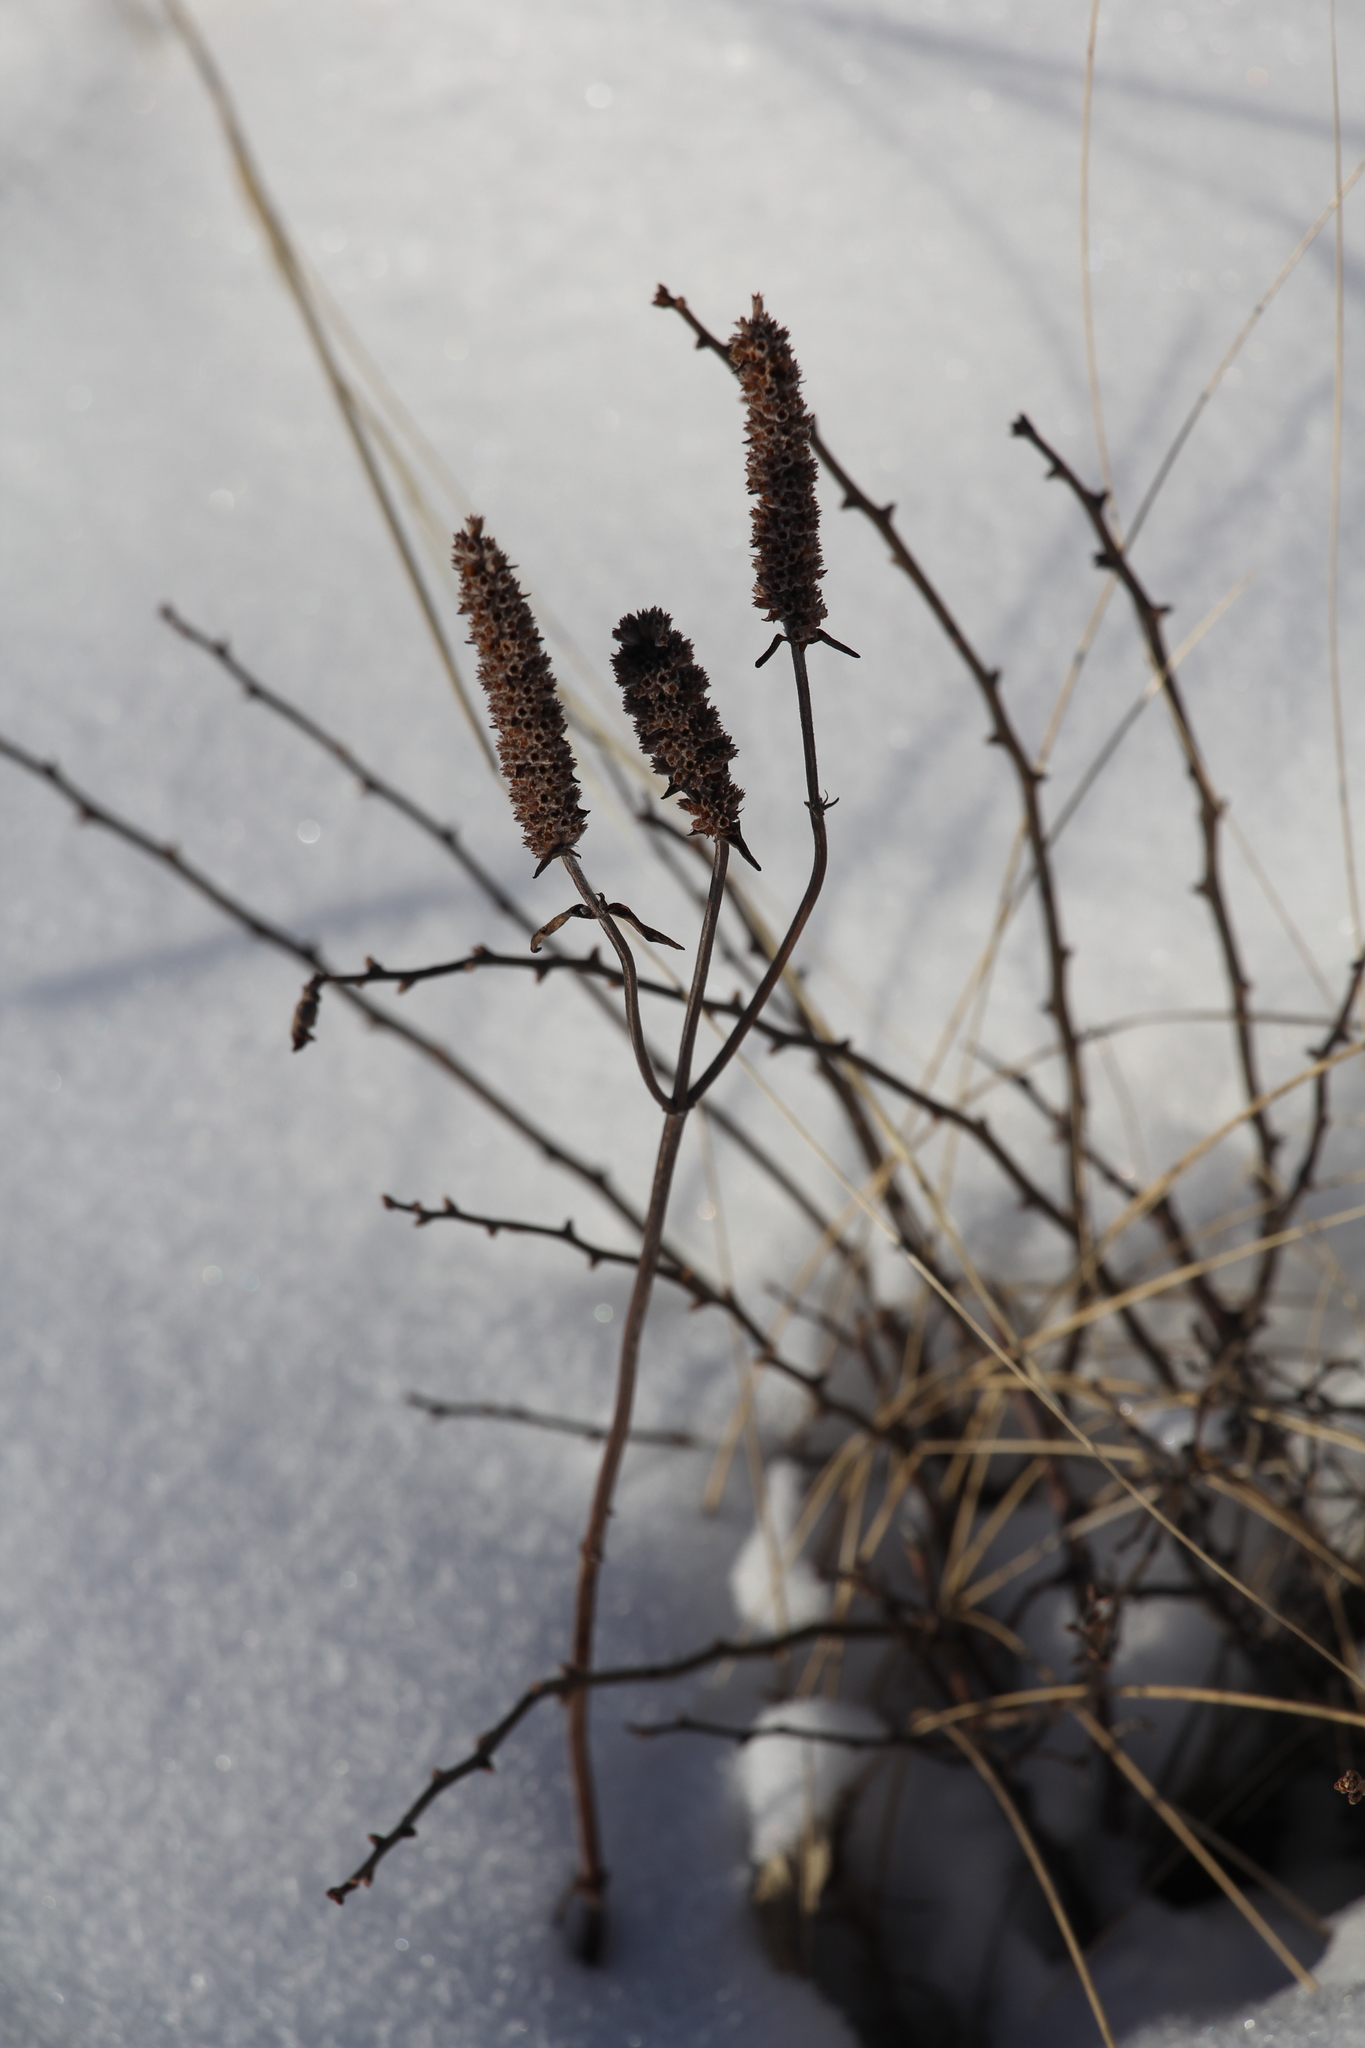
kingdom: Plantae
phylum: Tracheophyta
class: Magnoliopsida
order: Lamiales
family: Lamiaceae
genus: Nepeta
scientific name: Nepeta multifida
